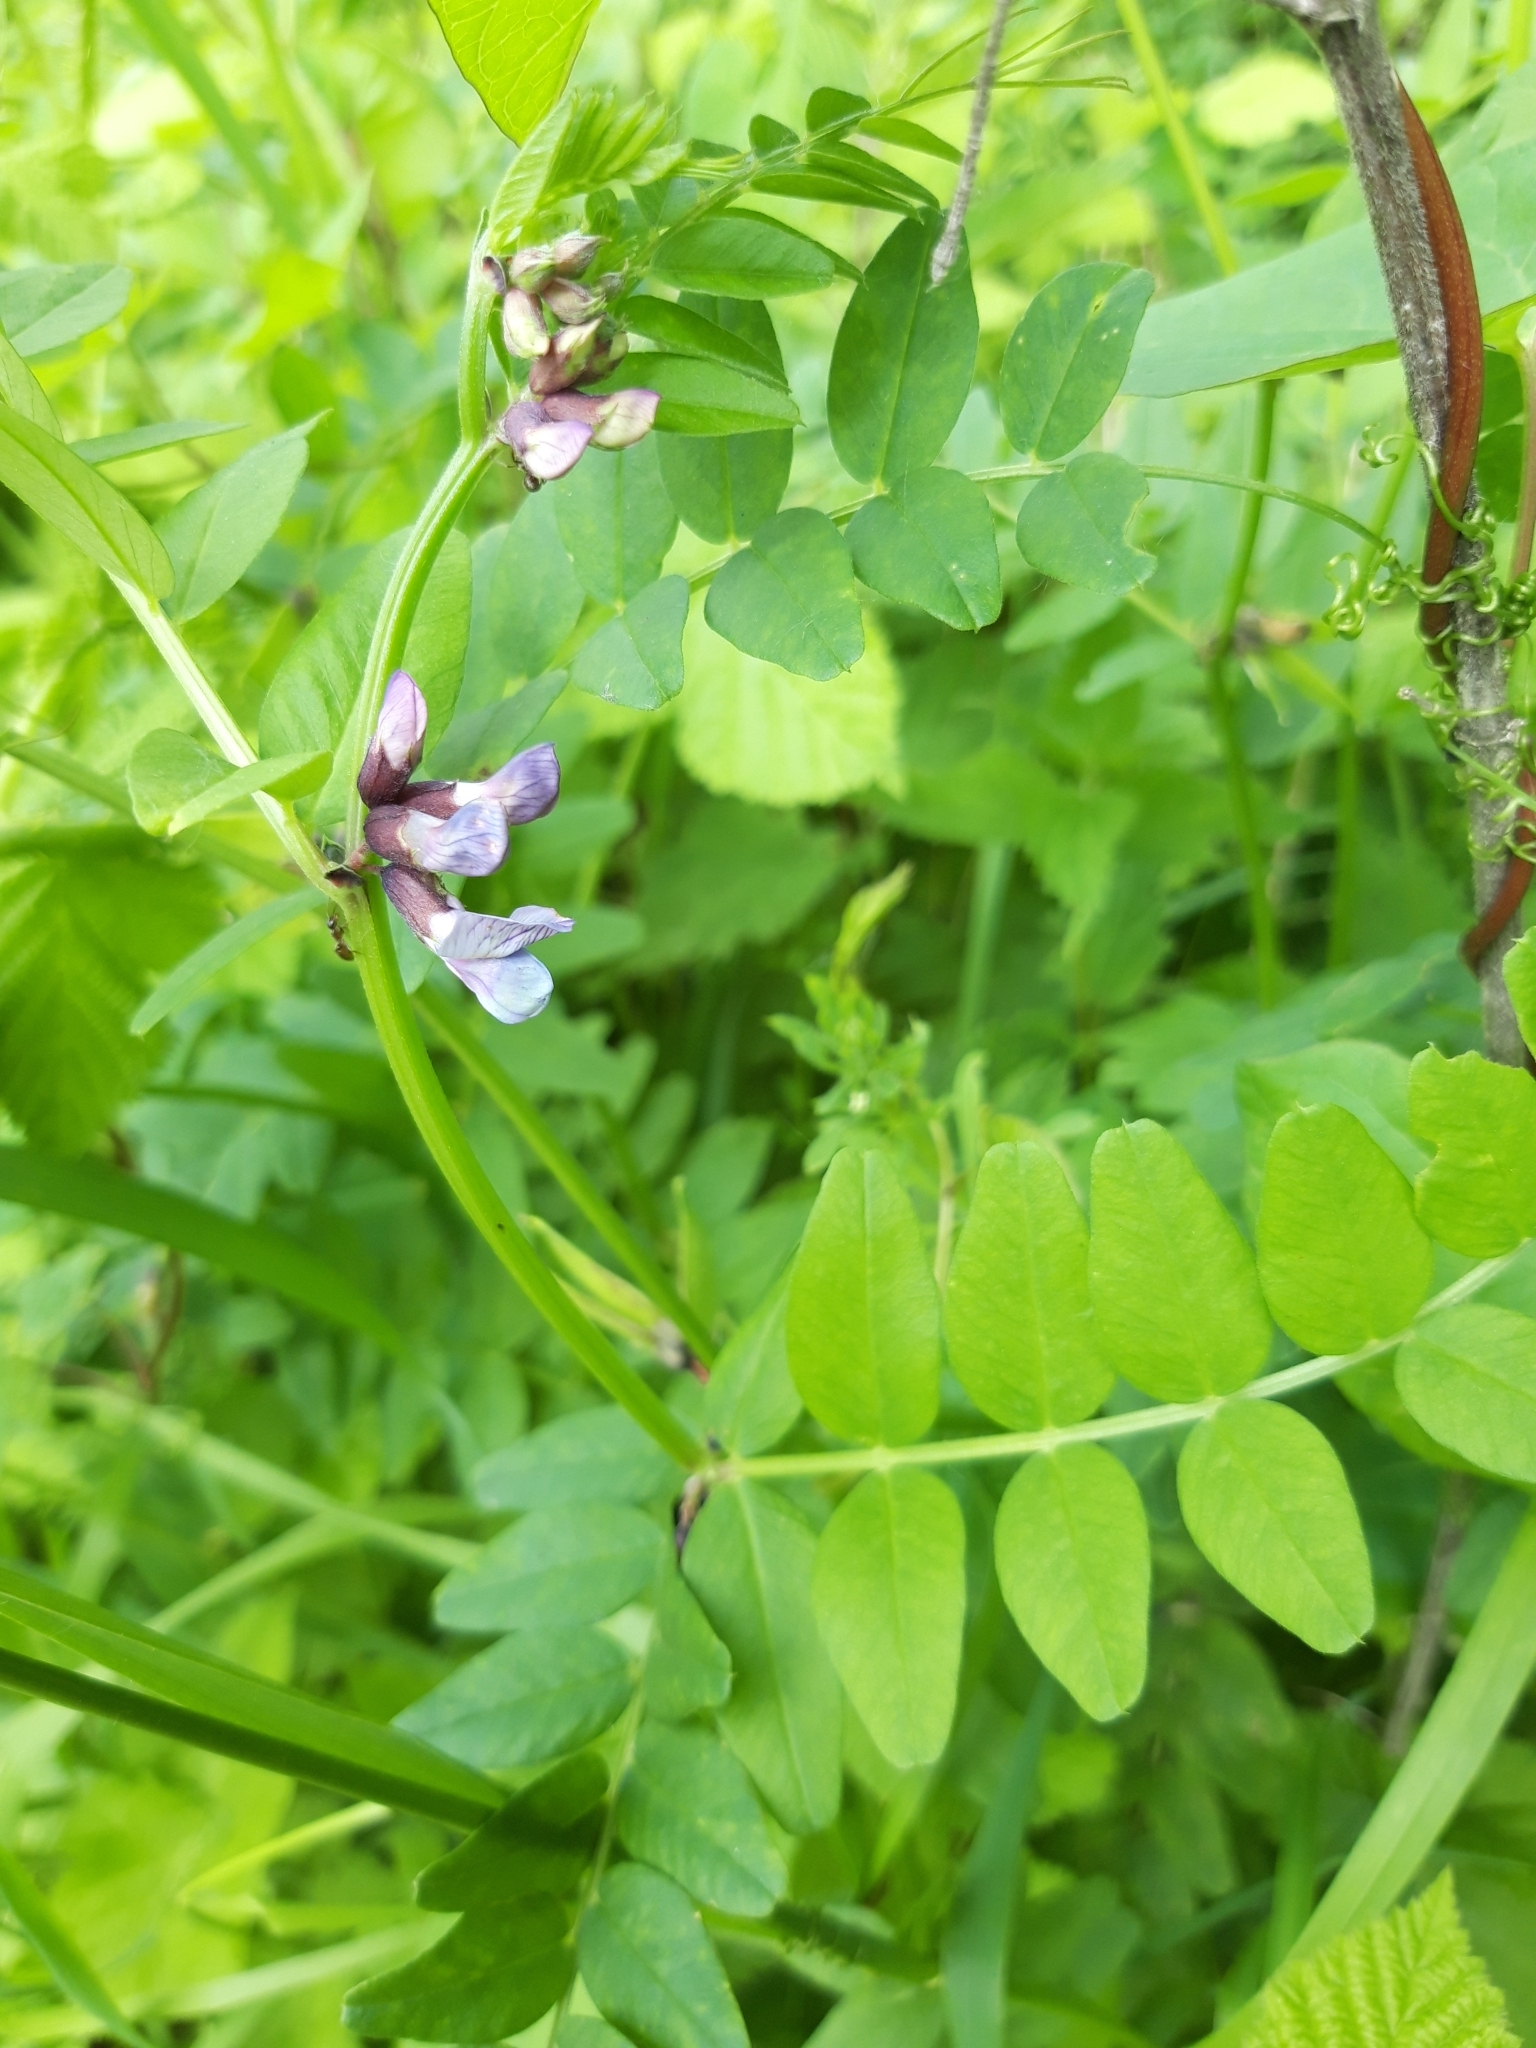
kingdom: Plantae
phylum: Tracheophyta
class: Magnoliopsida
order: Fabales
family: Fabaceae
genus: Vicia
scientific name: Vicia sepium
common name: Bush vetch
